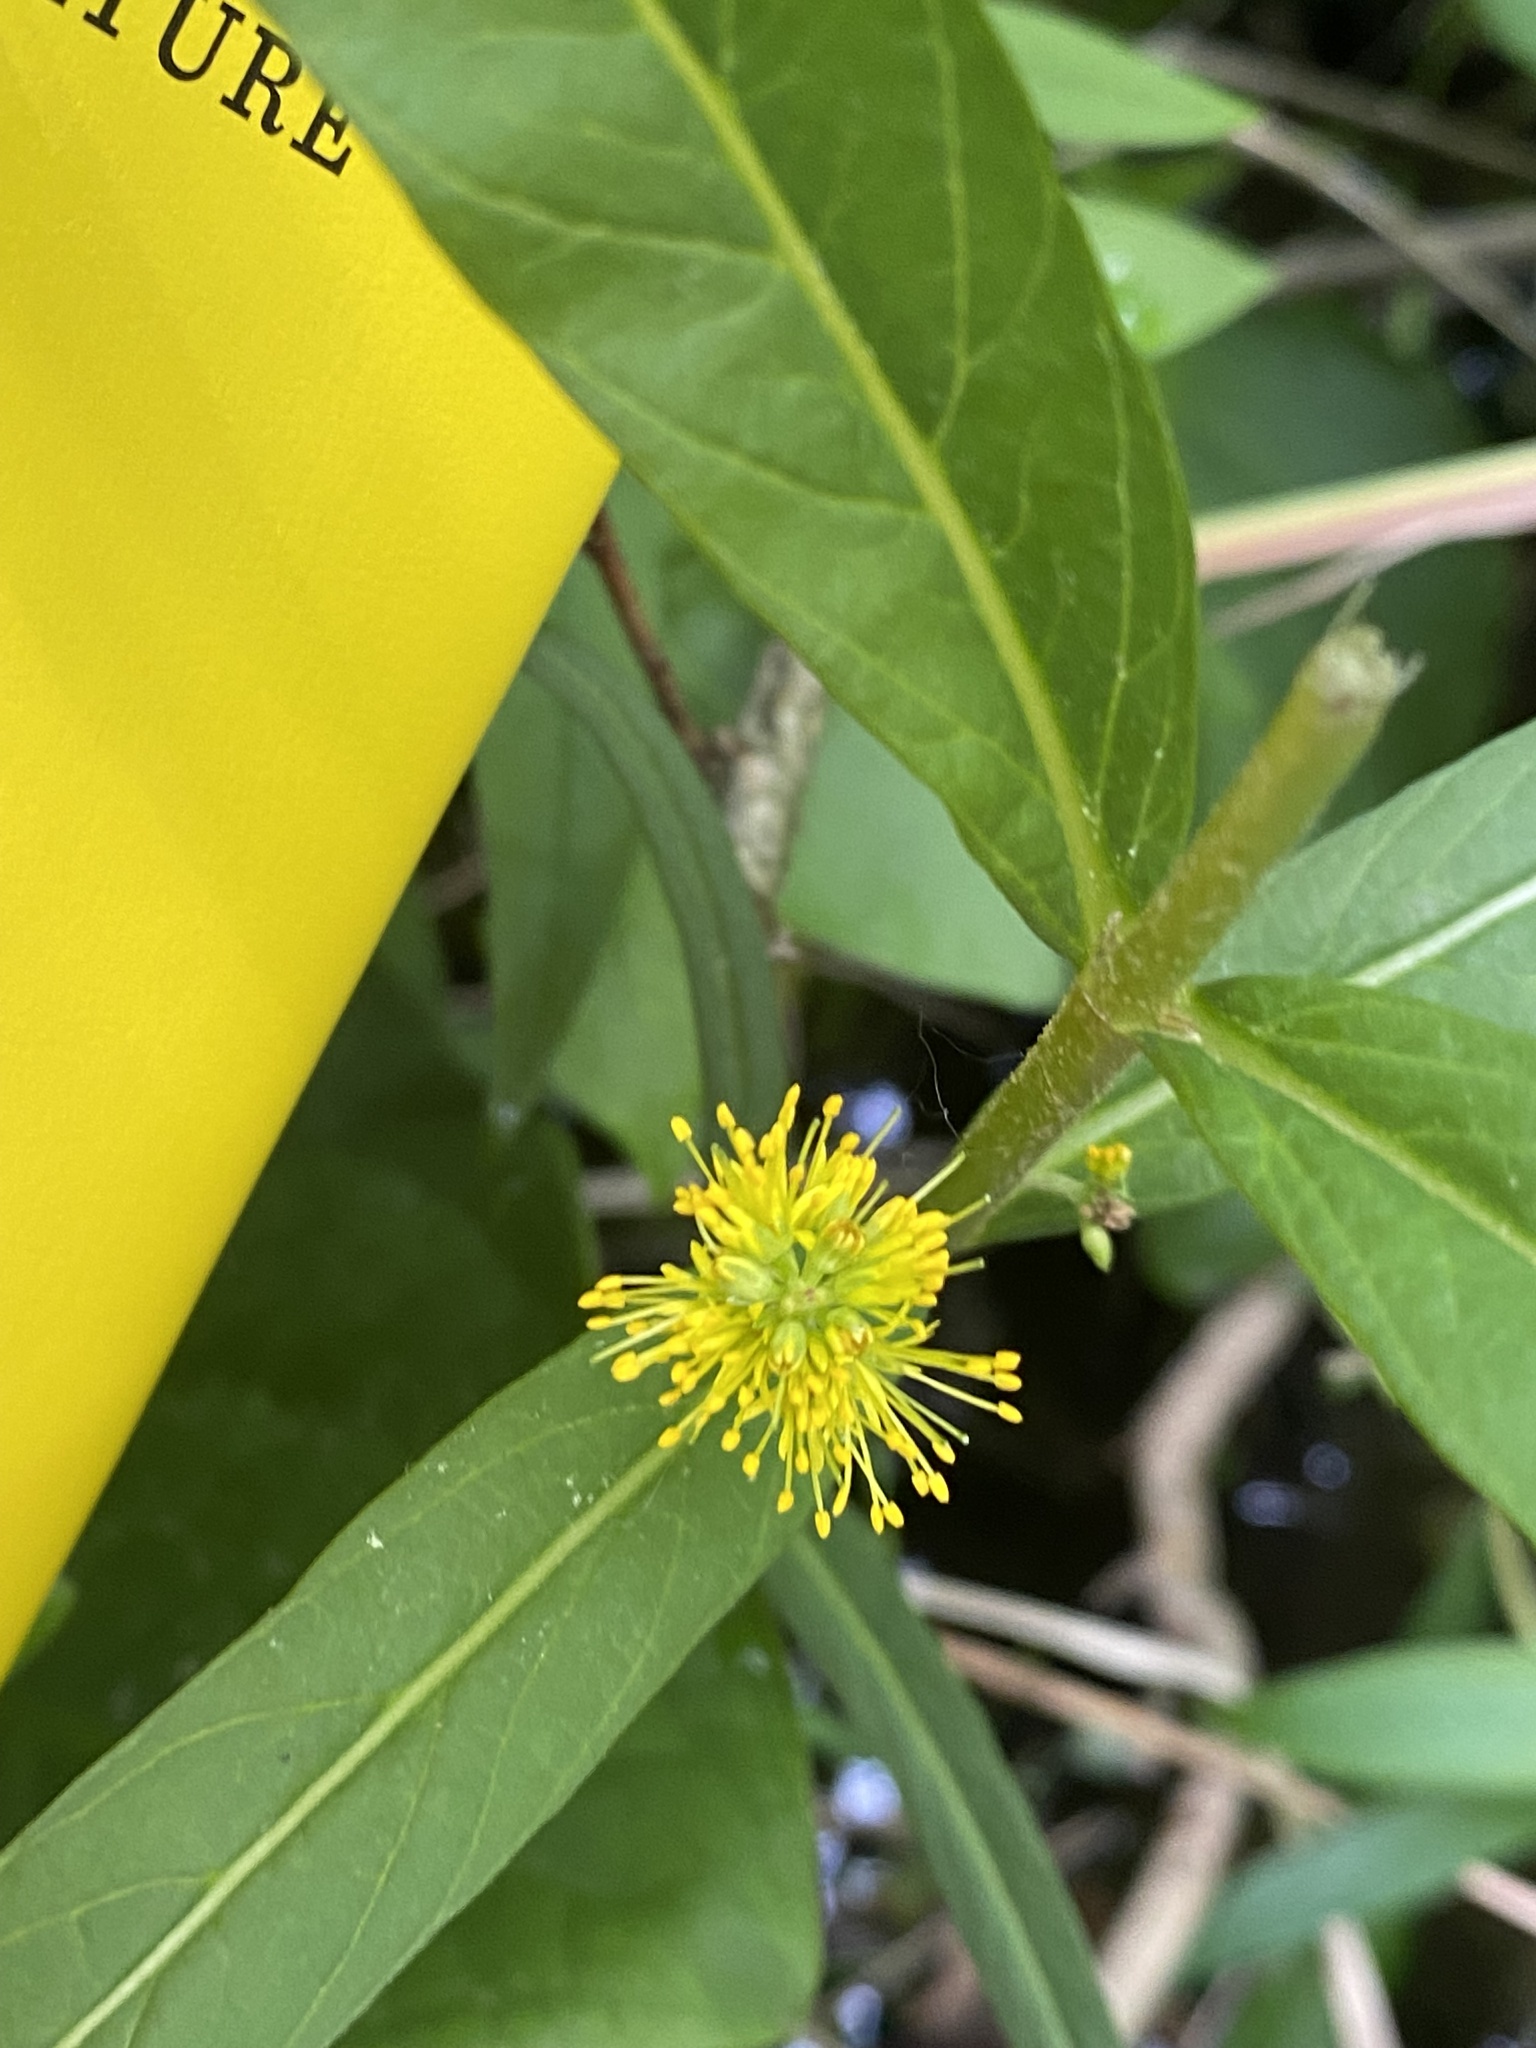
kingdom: Plantae
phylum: Tracheophyta
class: Magnoliopsida
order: Ericales
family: Primulaceae
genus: Lysimachia
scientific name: Lysimachia thyrsiflora
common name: Tufted loosestrife
